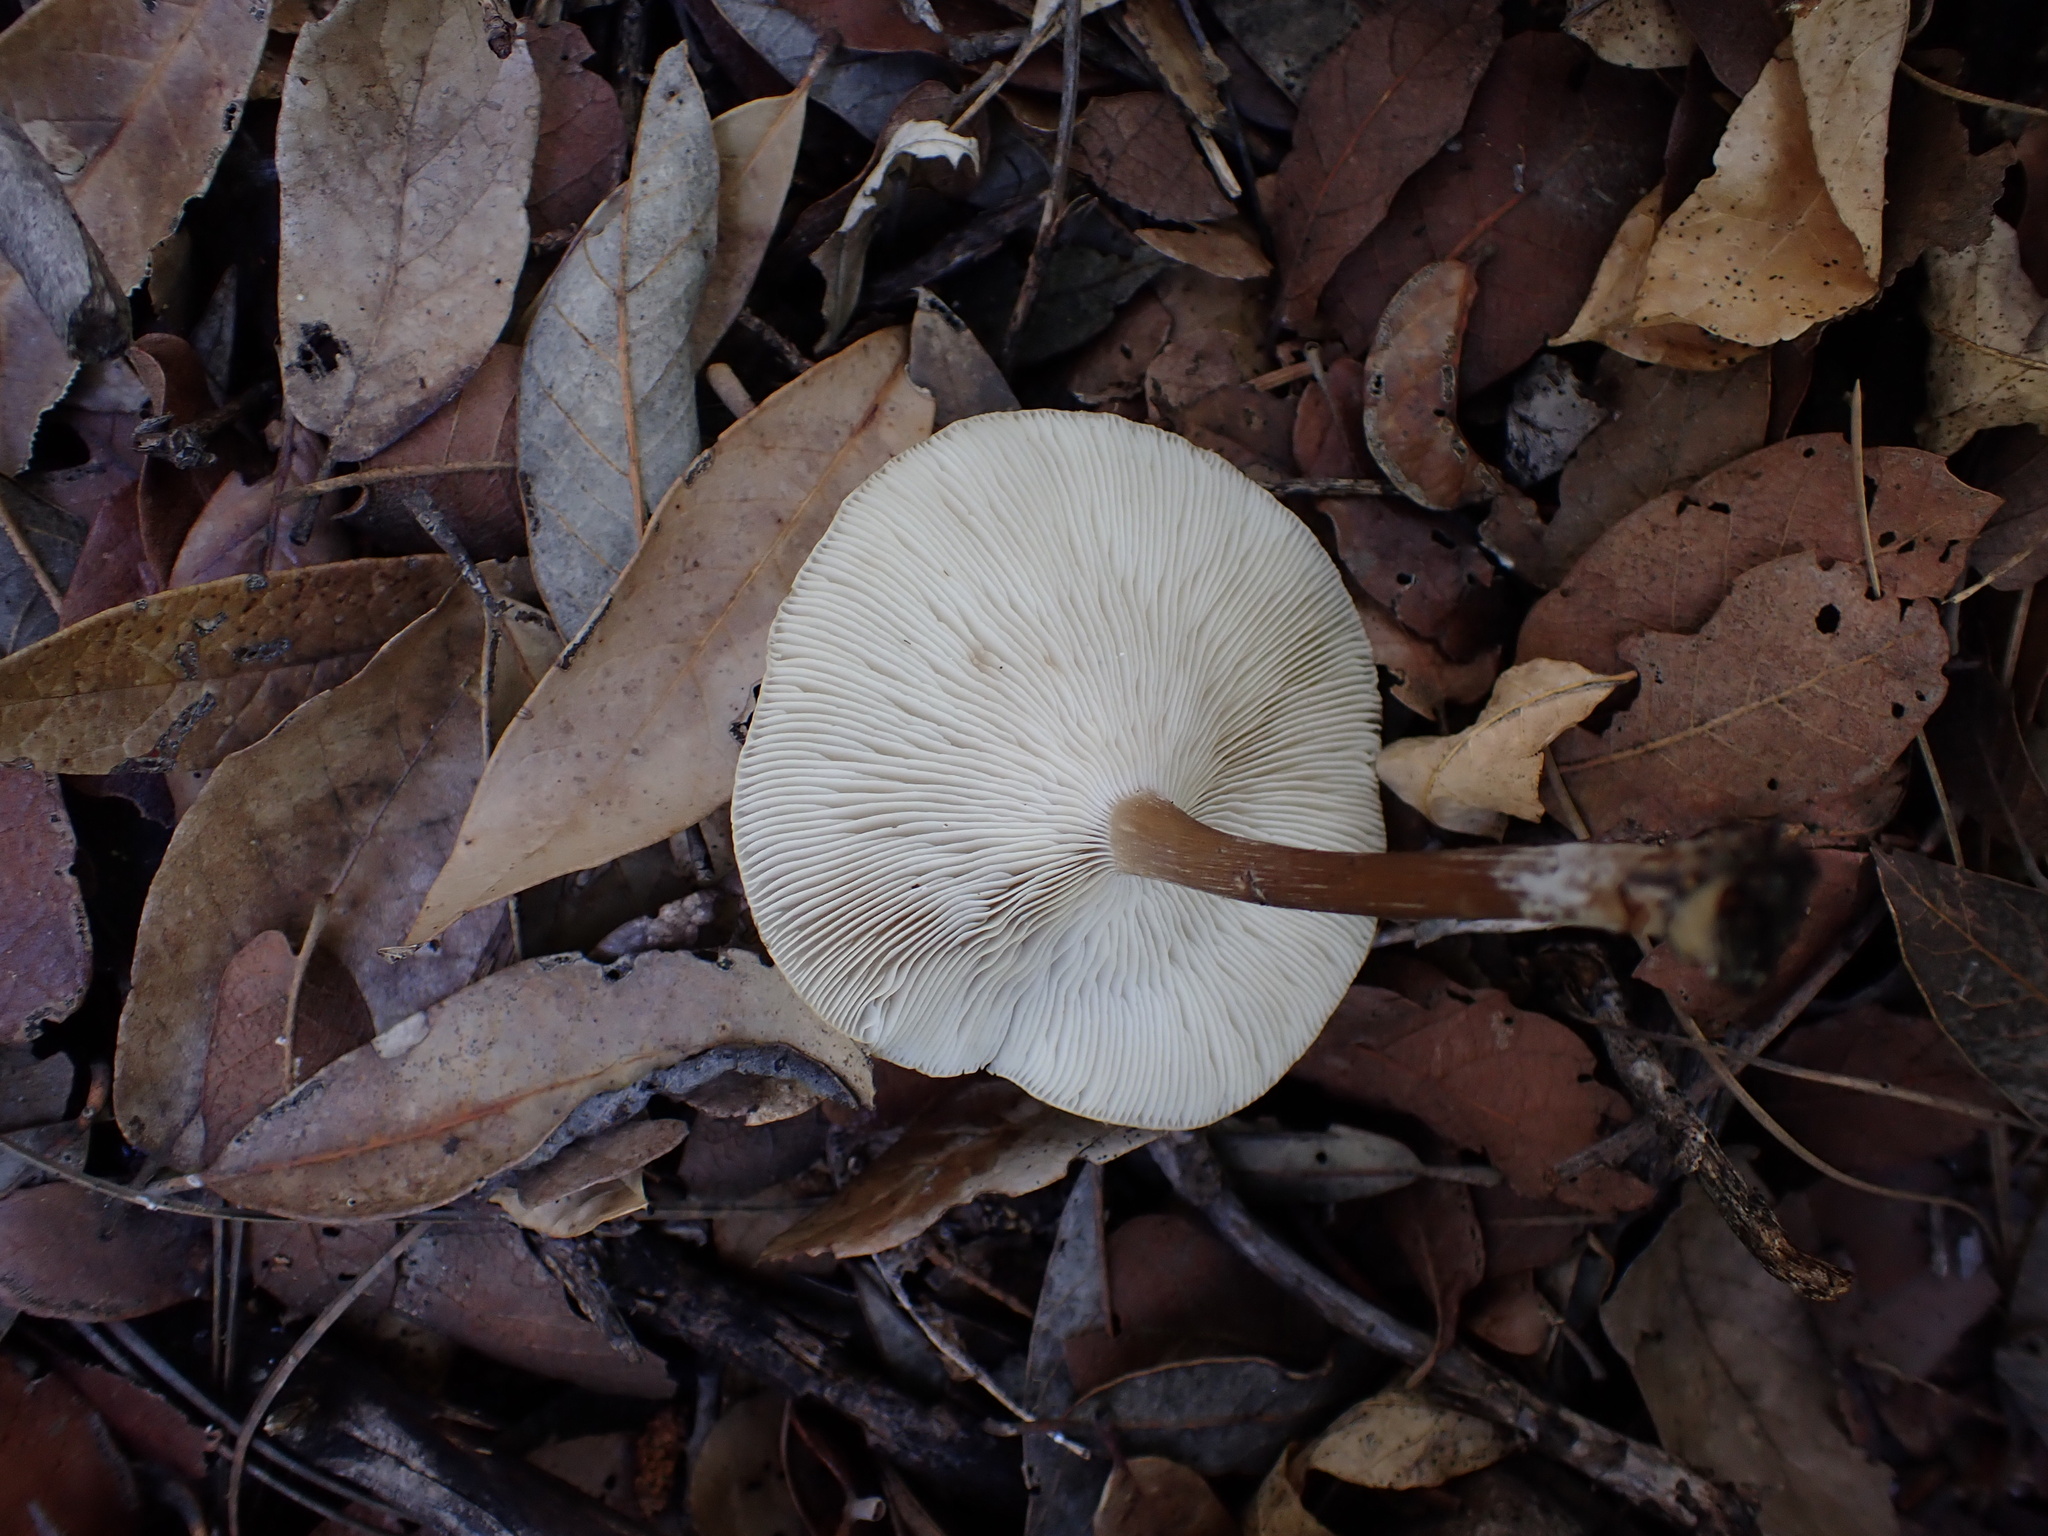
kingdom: Fungi
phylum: Basidiomycota
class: Agaricomycetes
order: Agaricales
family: Tricholomataceae
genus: Melanoleuca
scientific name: Melanoleuca galbuserae
